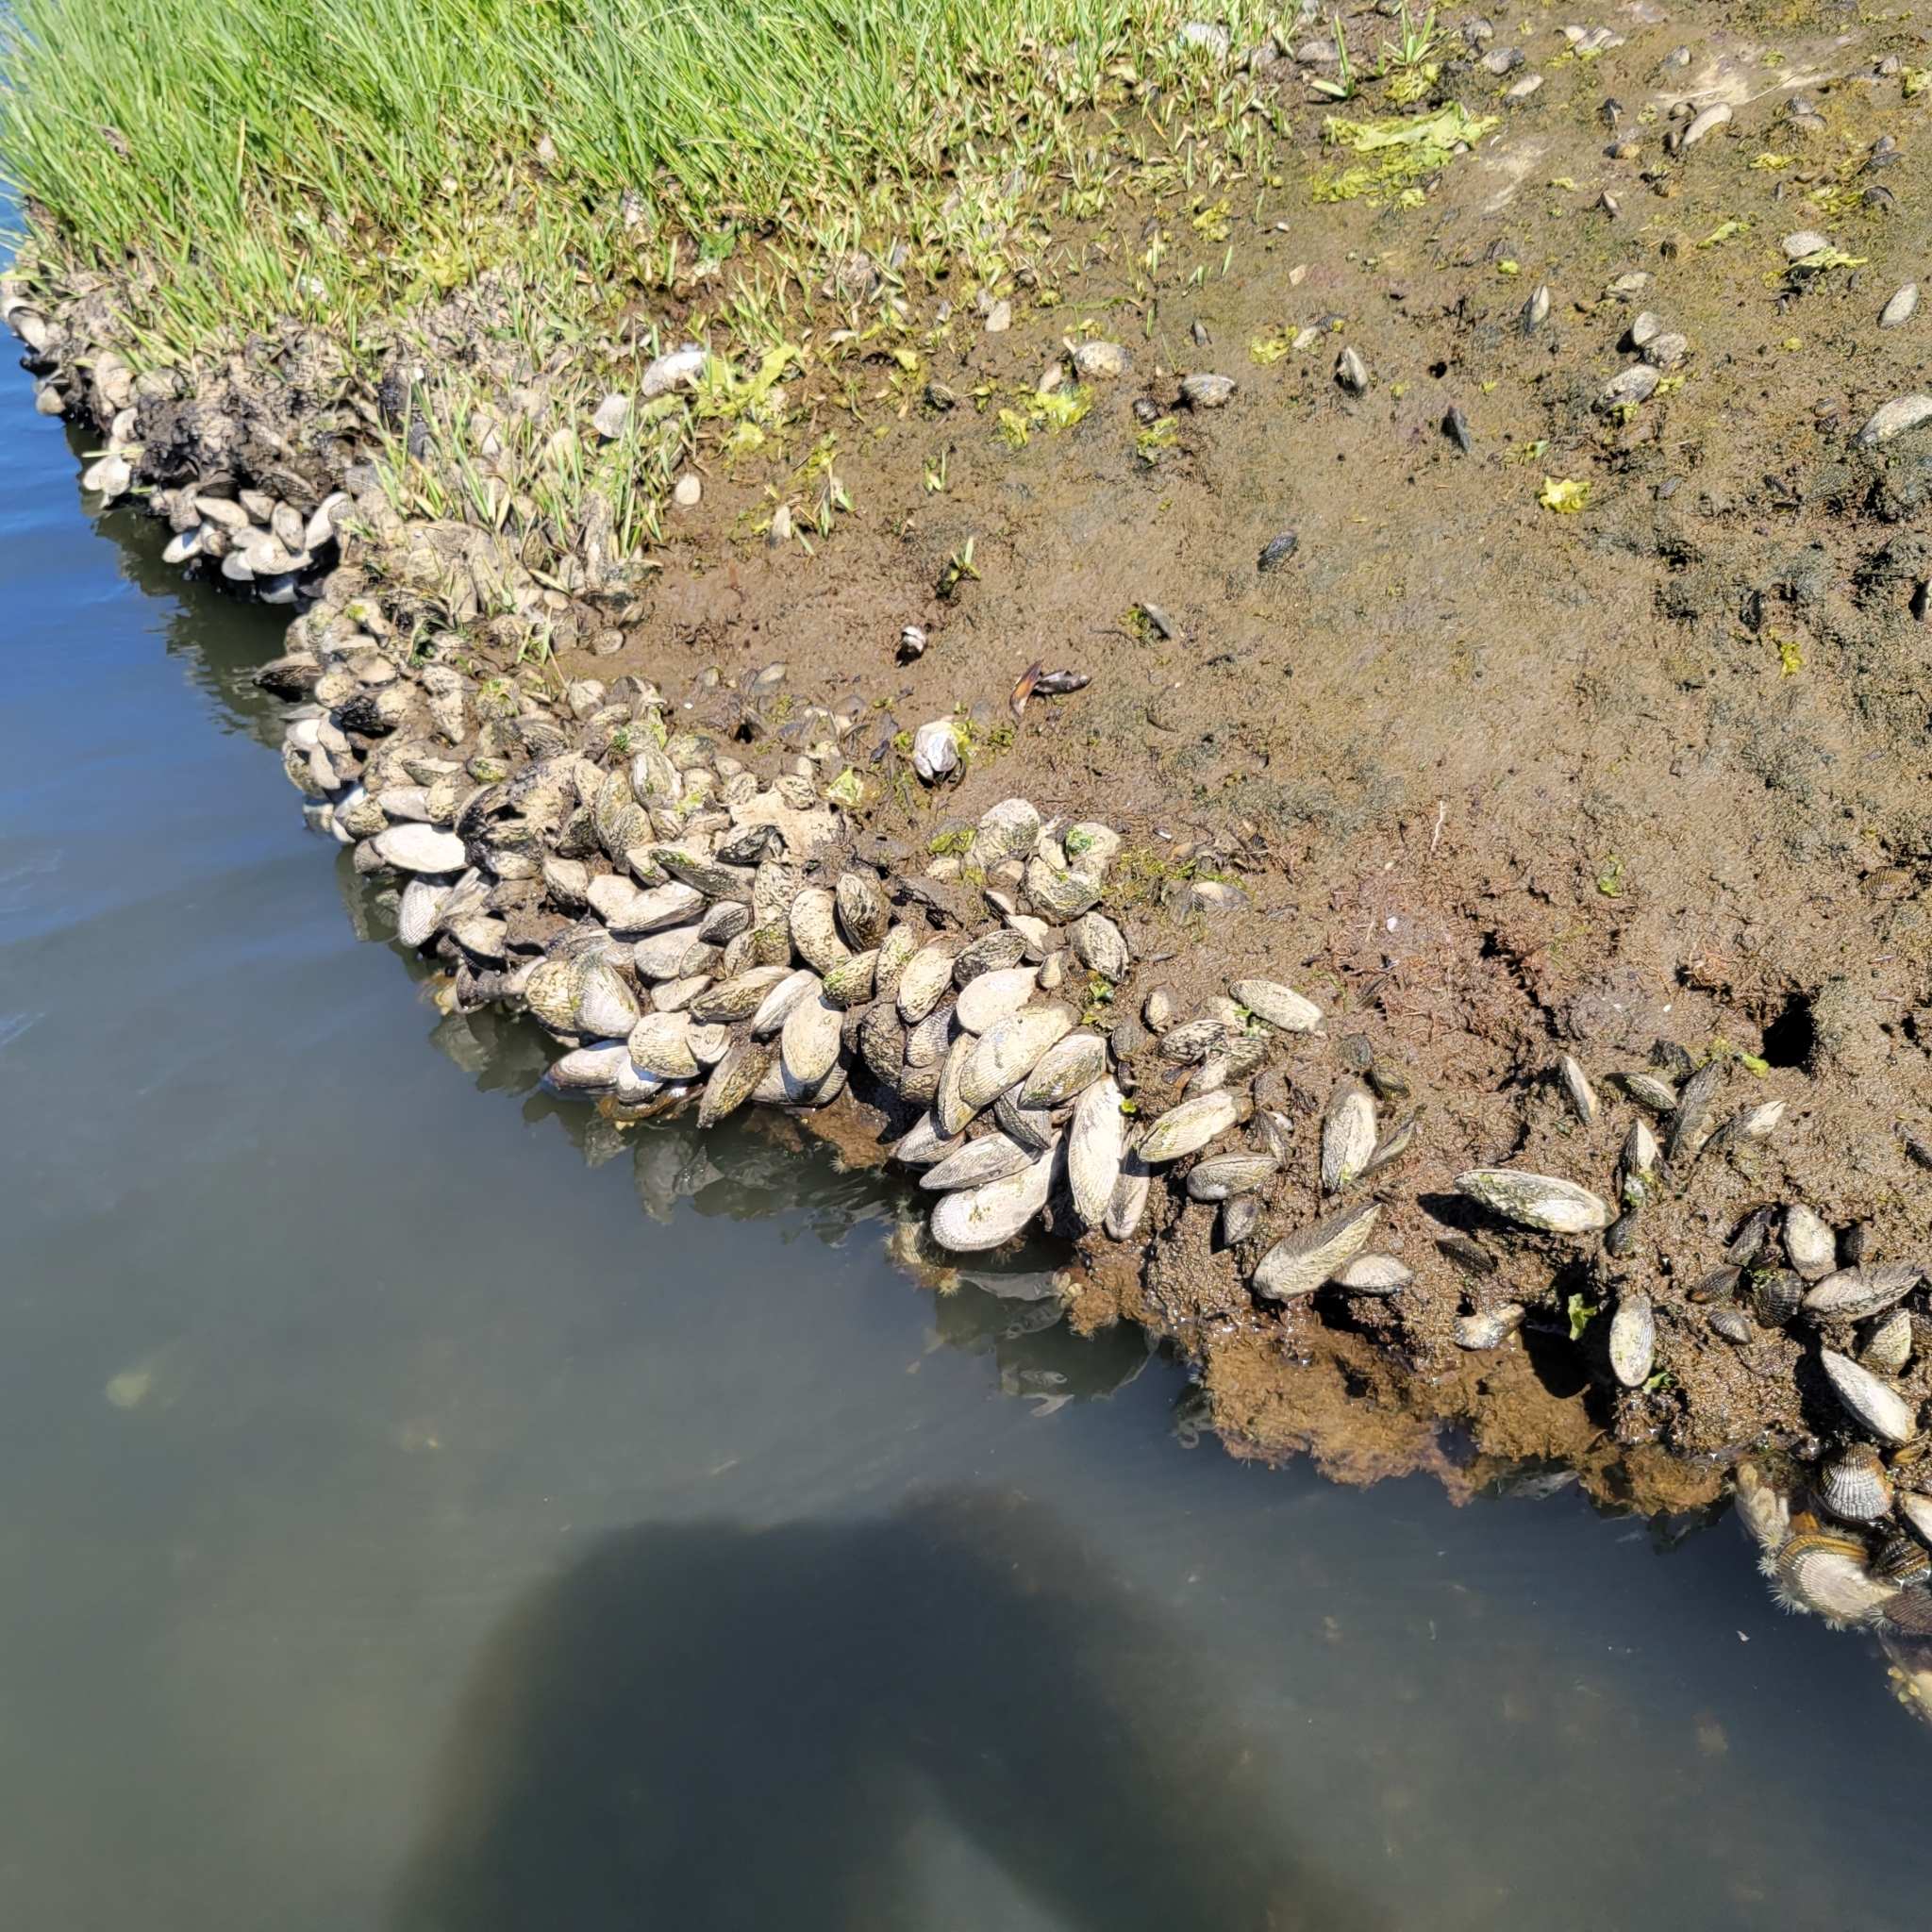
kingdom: Animalia
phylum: Mollusca
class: Bivalvia
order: Mytilida
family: Mytilidae
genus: Geukensia
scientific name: Geukensia demissa
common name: Ribbed mussel
